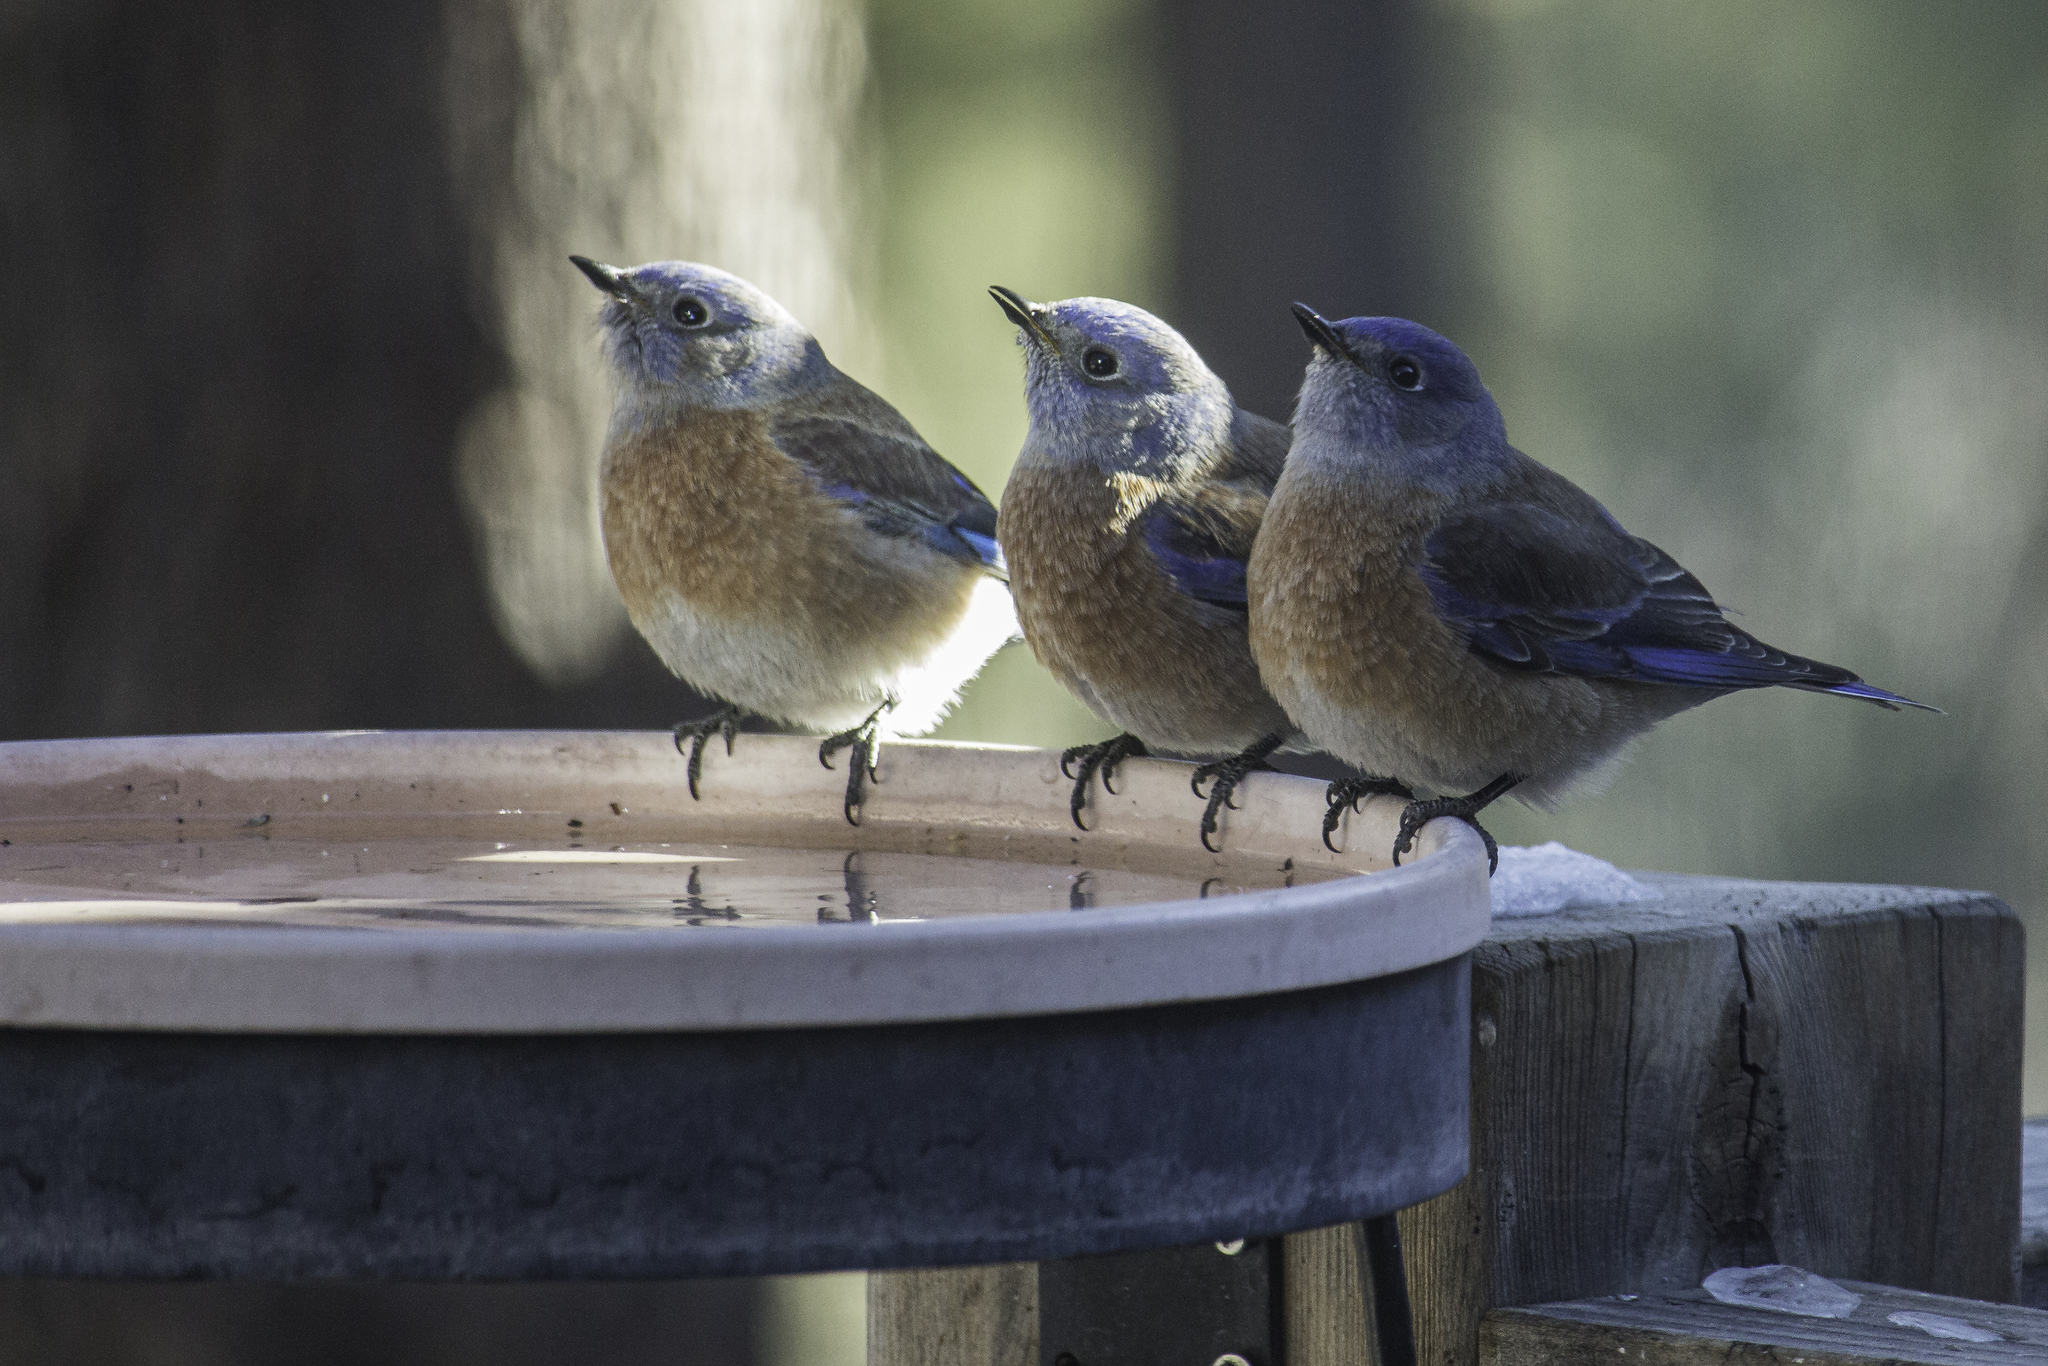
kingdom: Animalia
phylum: Chordata
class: Aves
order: Passeriformes
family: Turdidae
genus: Sialia
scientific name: Sialia mexicana
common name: Western bluebird
